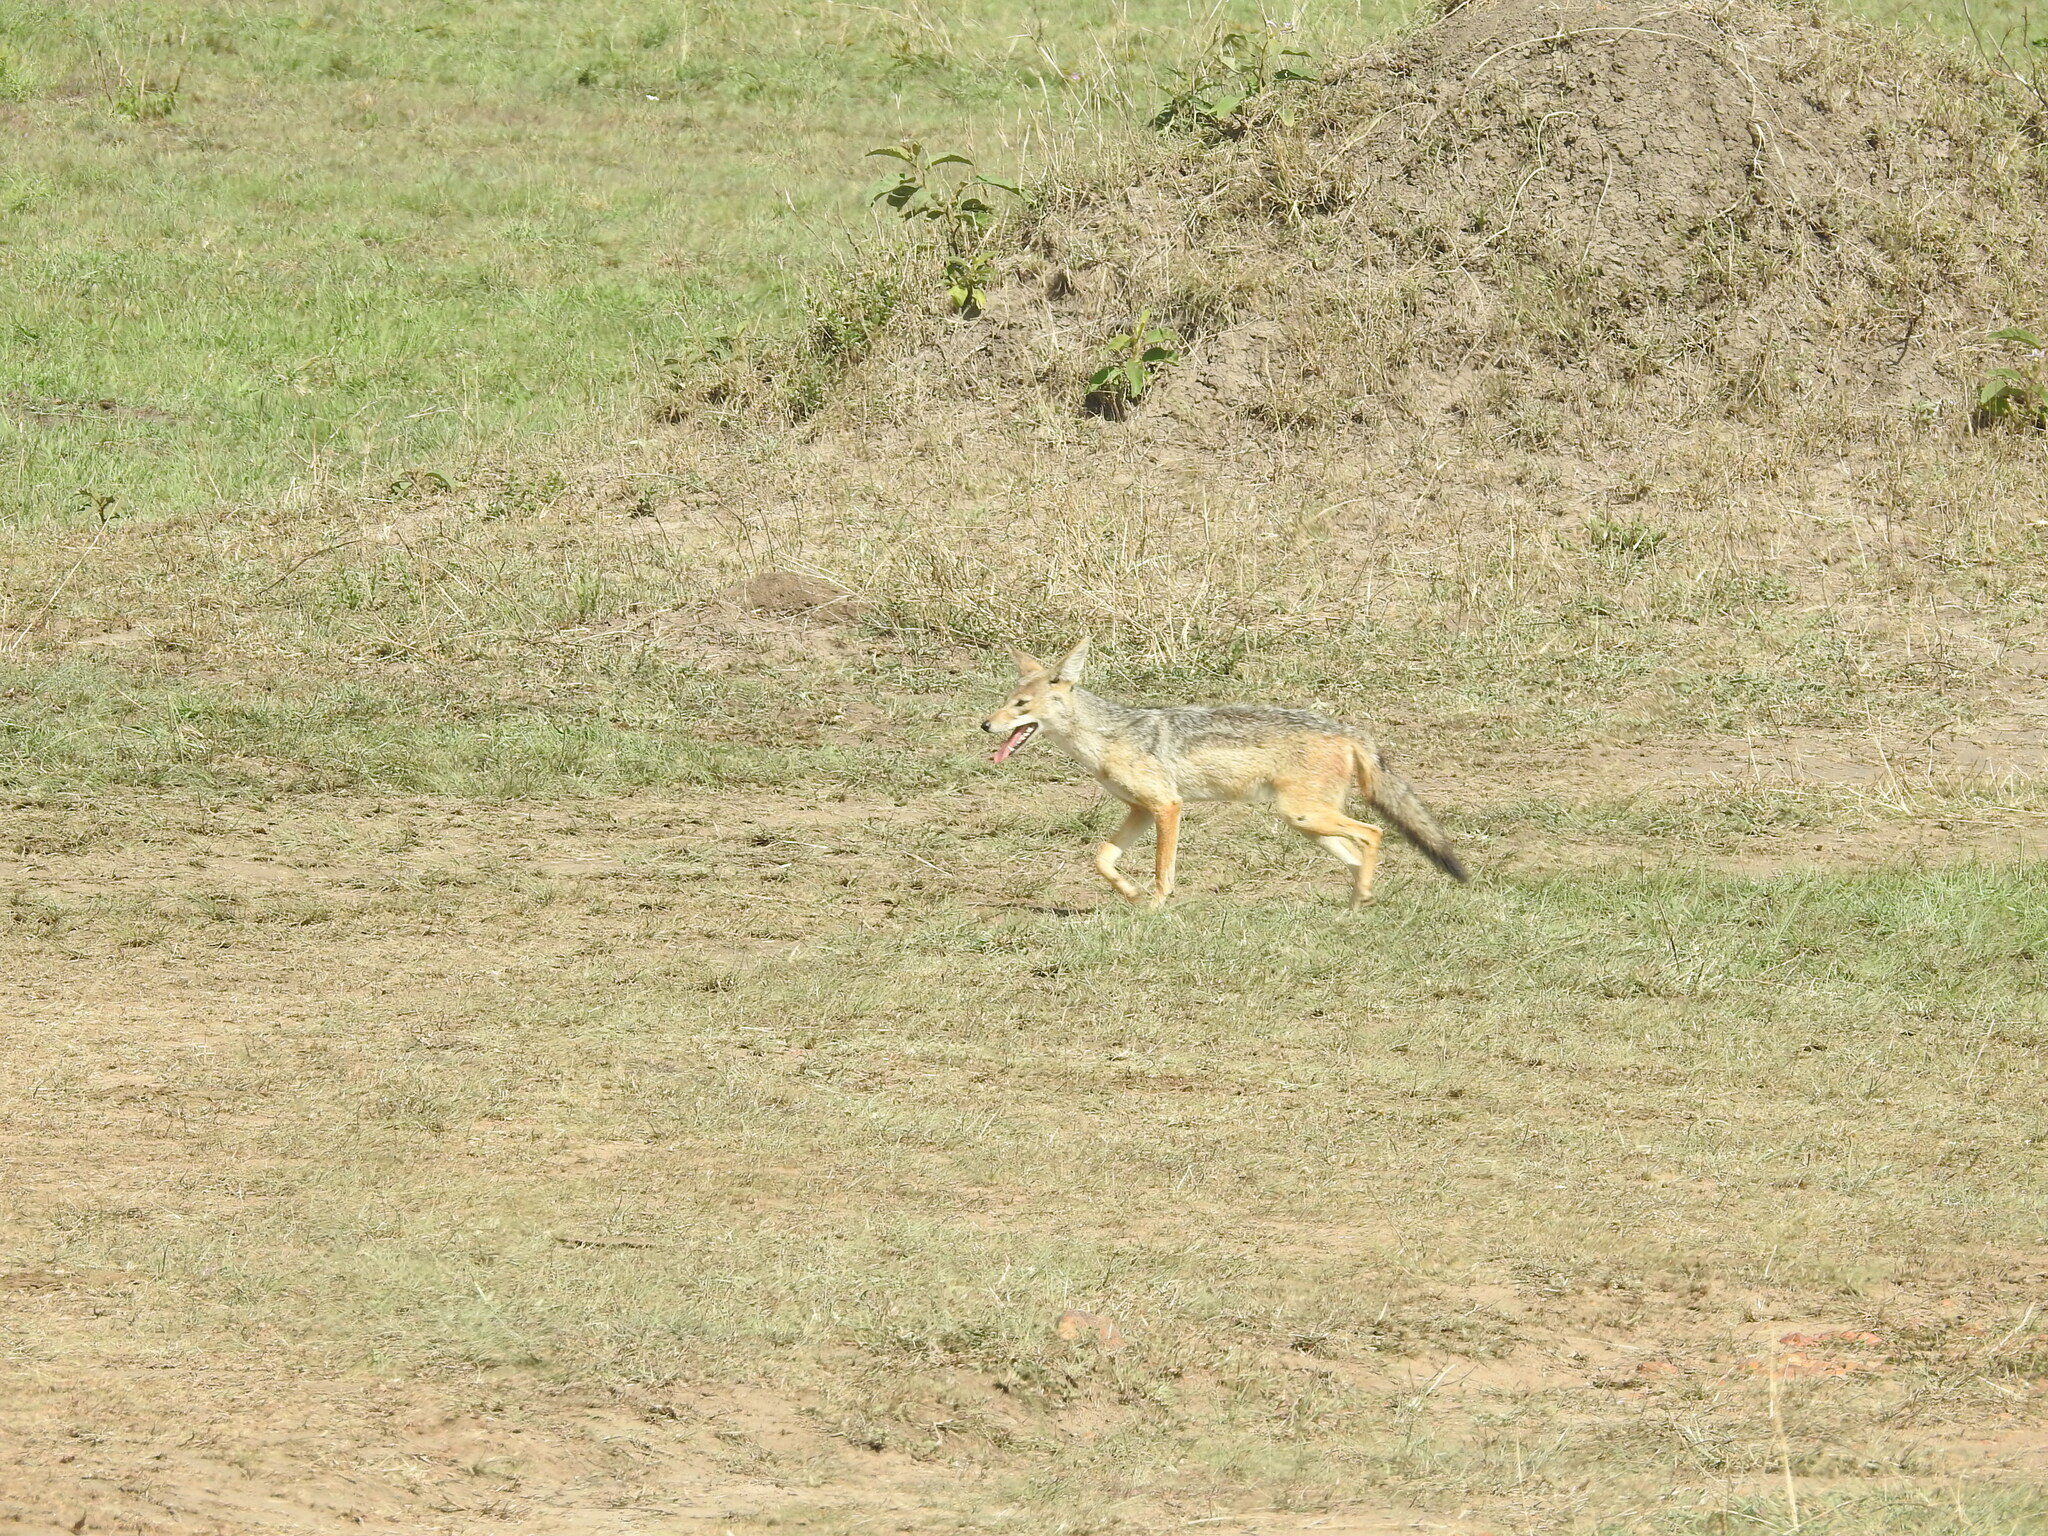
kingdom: Animalia
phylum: Chordata
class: Mammalia
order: Carnivora
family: Canidae
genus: Lupulella
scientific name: Lupulella
